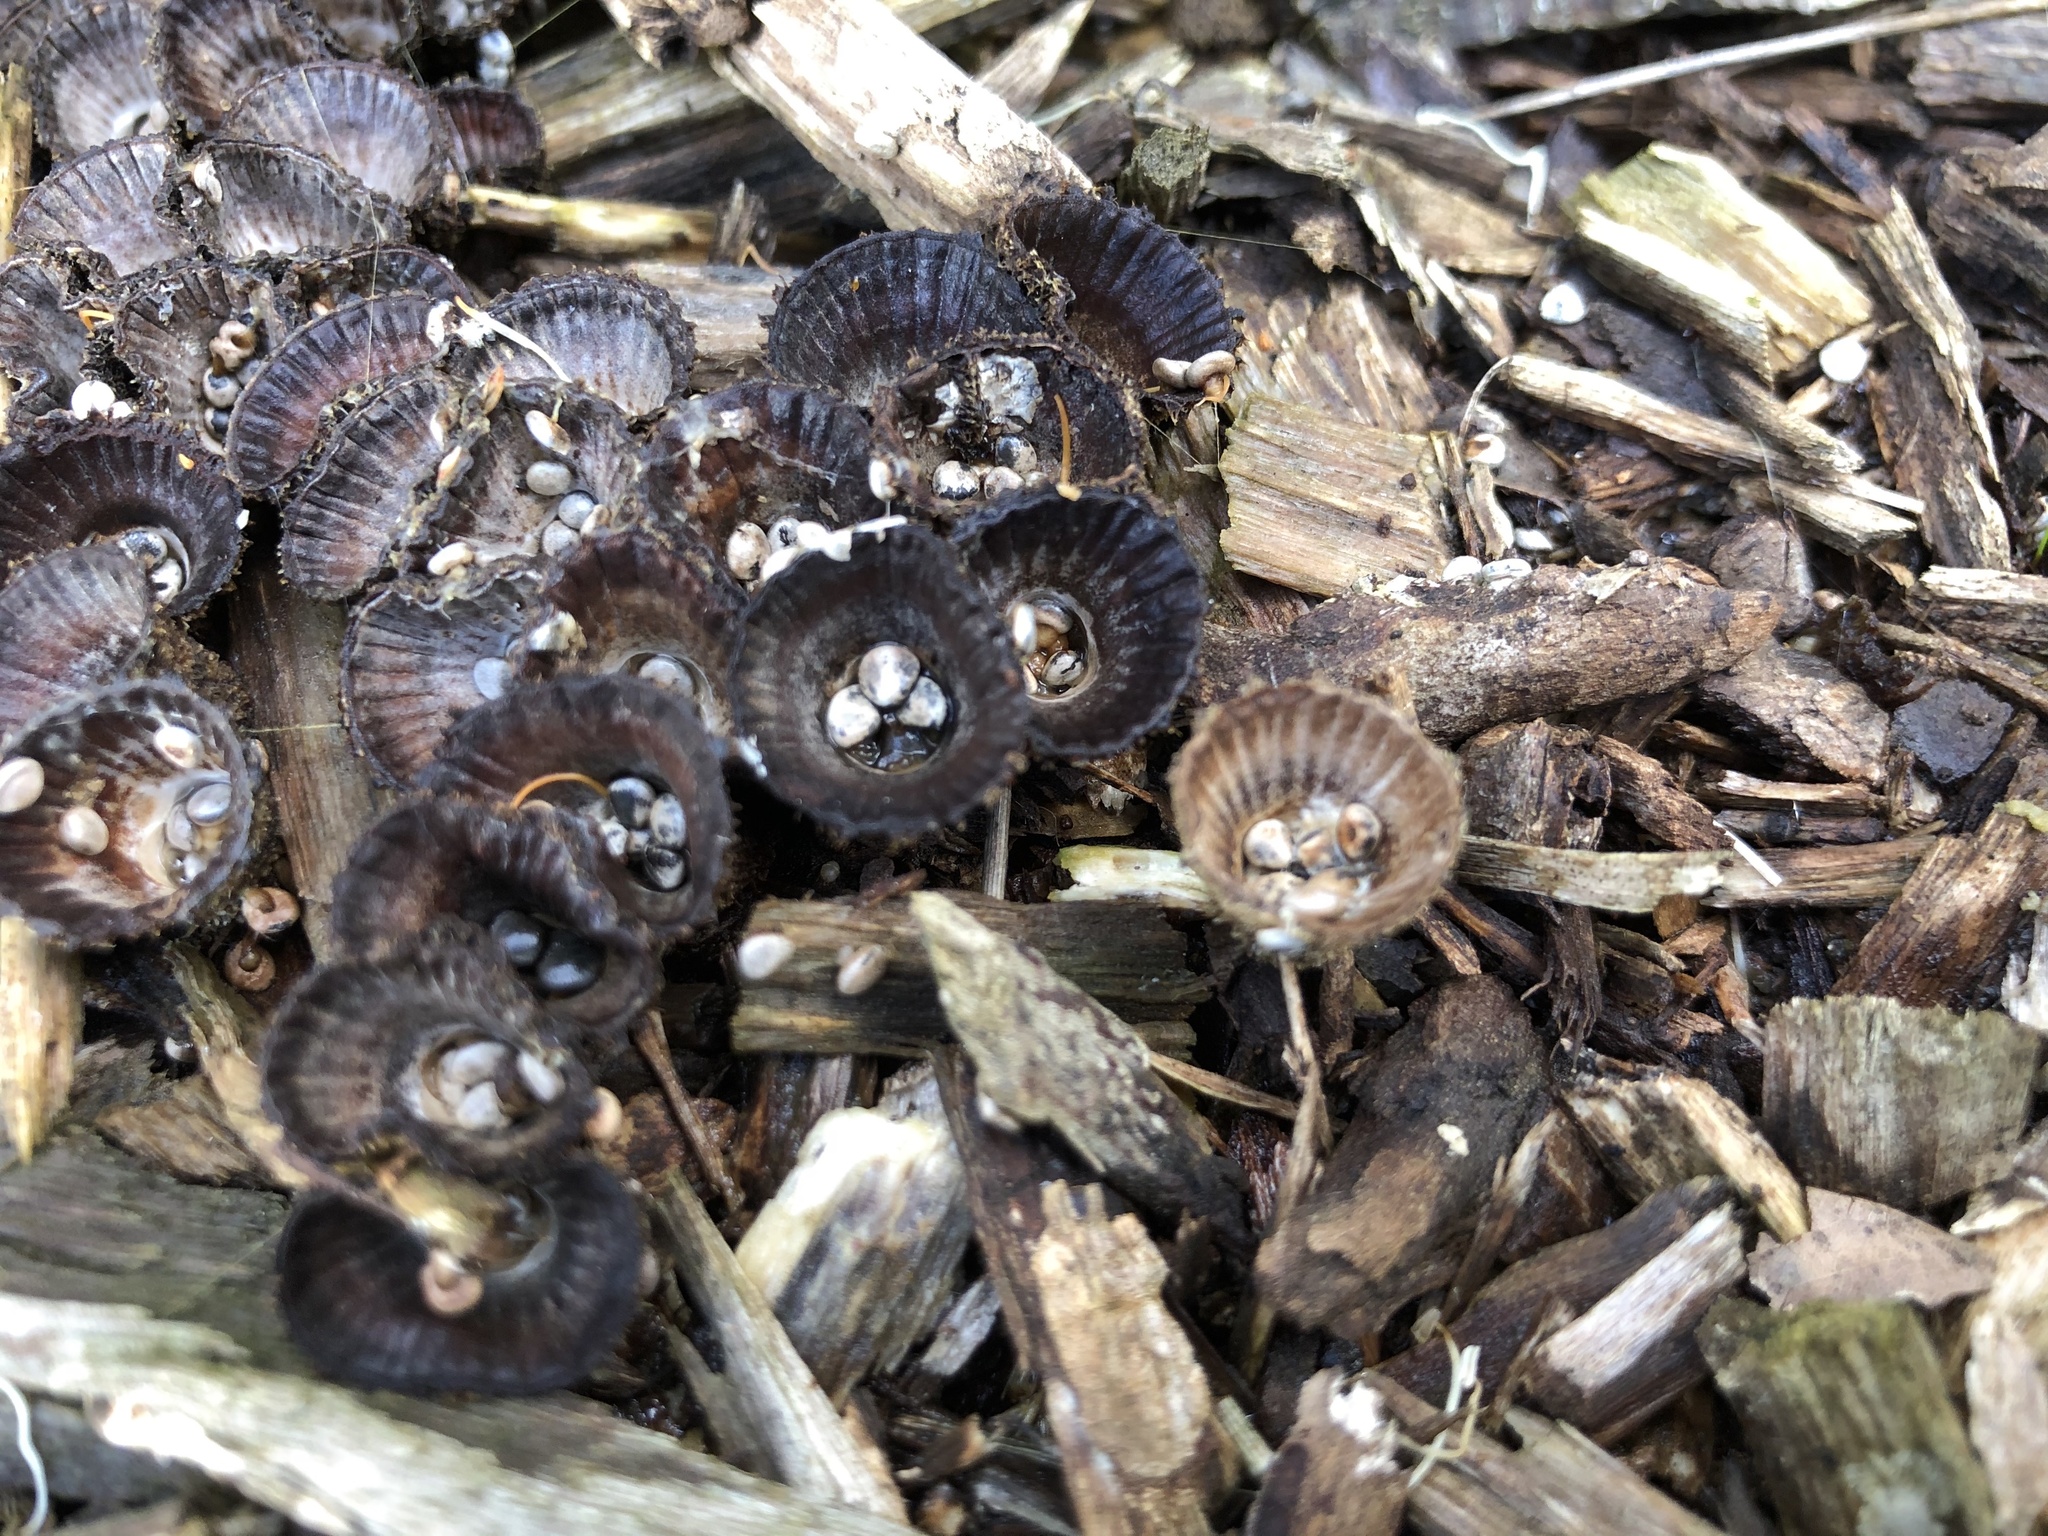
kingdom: Fungi
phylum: Basidiomycota
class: Agaricomycetes
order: Agaricales
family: Agaricaceae
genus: Cyathus
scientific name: Cyathus striatus
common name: Fluted bird's nest
